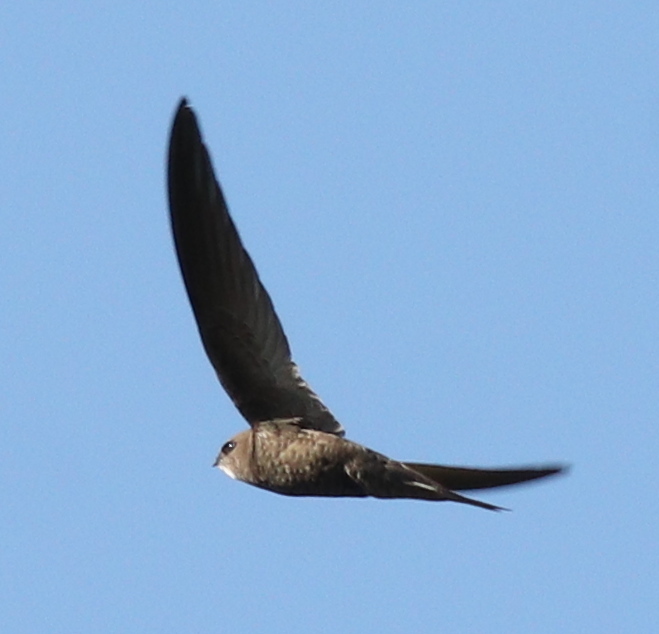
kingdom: Animalia
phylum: Chordata
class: Aves
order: Apodiformes
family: Apodidae
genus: Apus
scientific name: Apus apus
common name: Common swift
